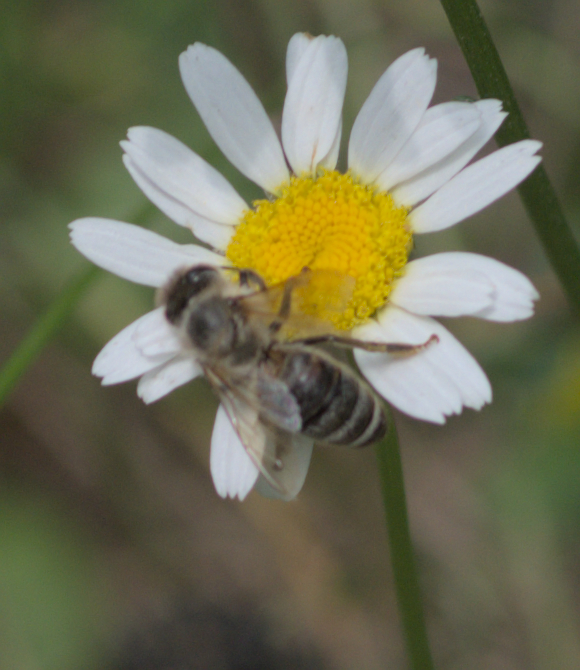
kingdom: Animalia
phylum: Arthropoda
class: Insecta
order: Hymenoptera
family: Apidae
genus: Apis
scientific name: Apis mellifera
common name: Honey bee
